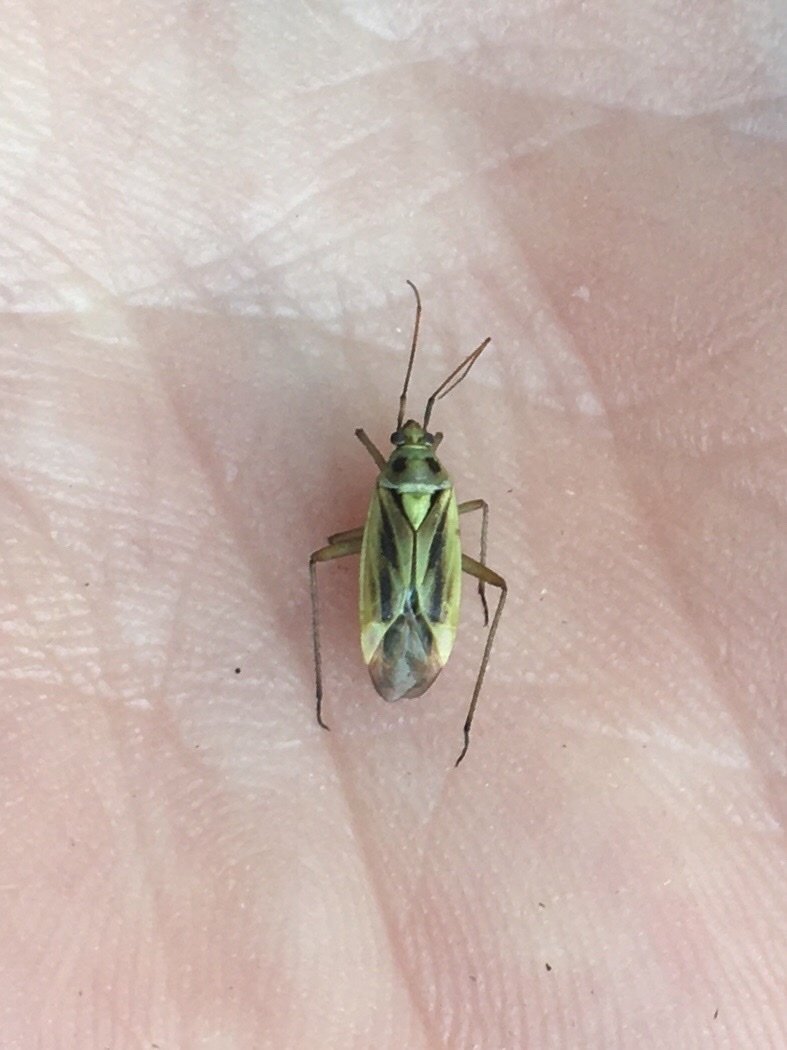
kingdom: Animalia
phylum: Arthropoda
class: Insecta
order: Hemiptera
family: Miridae
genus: Stenotus
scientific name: Stenotus binotatus
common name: Plant bug
